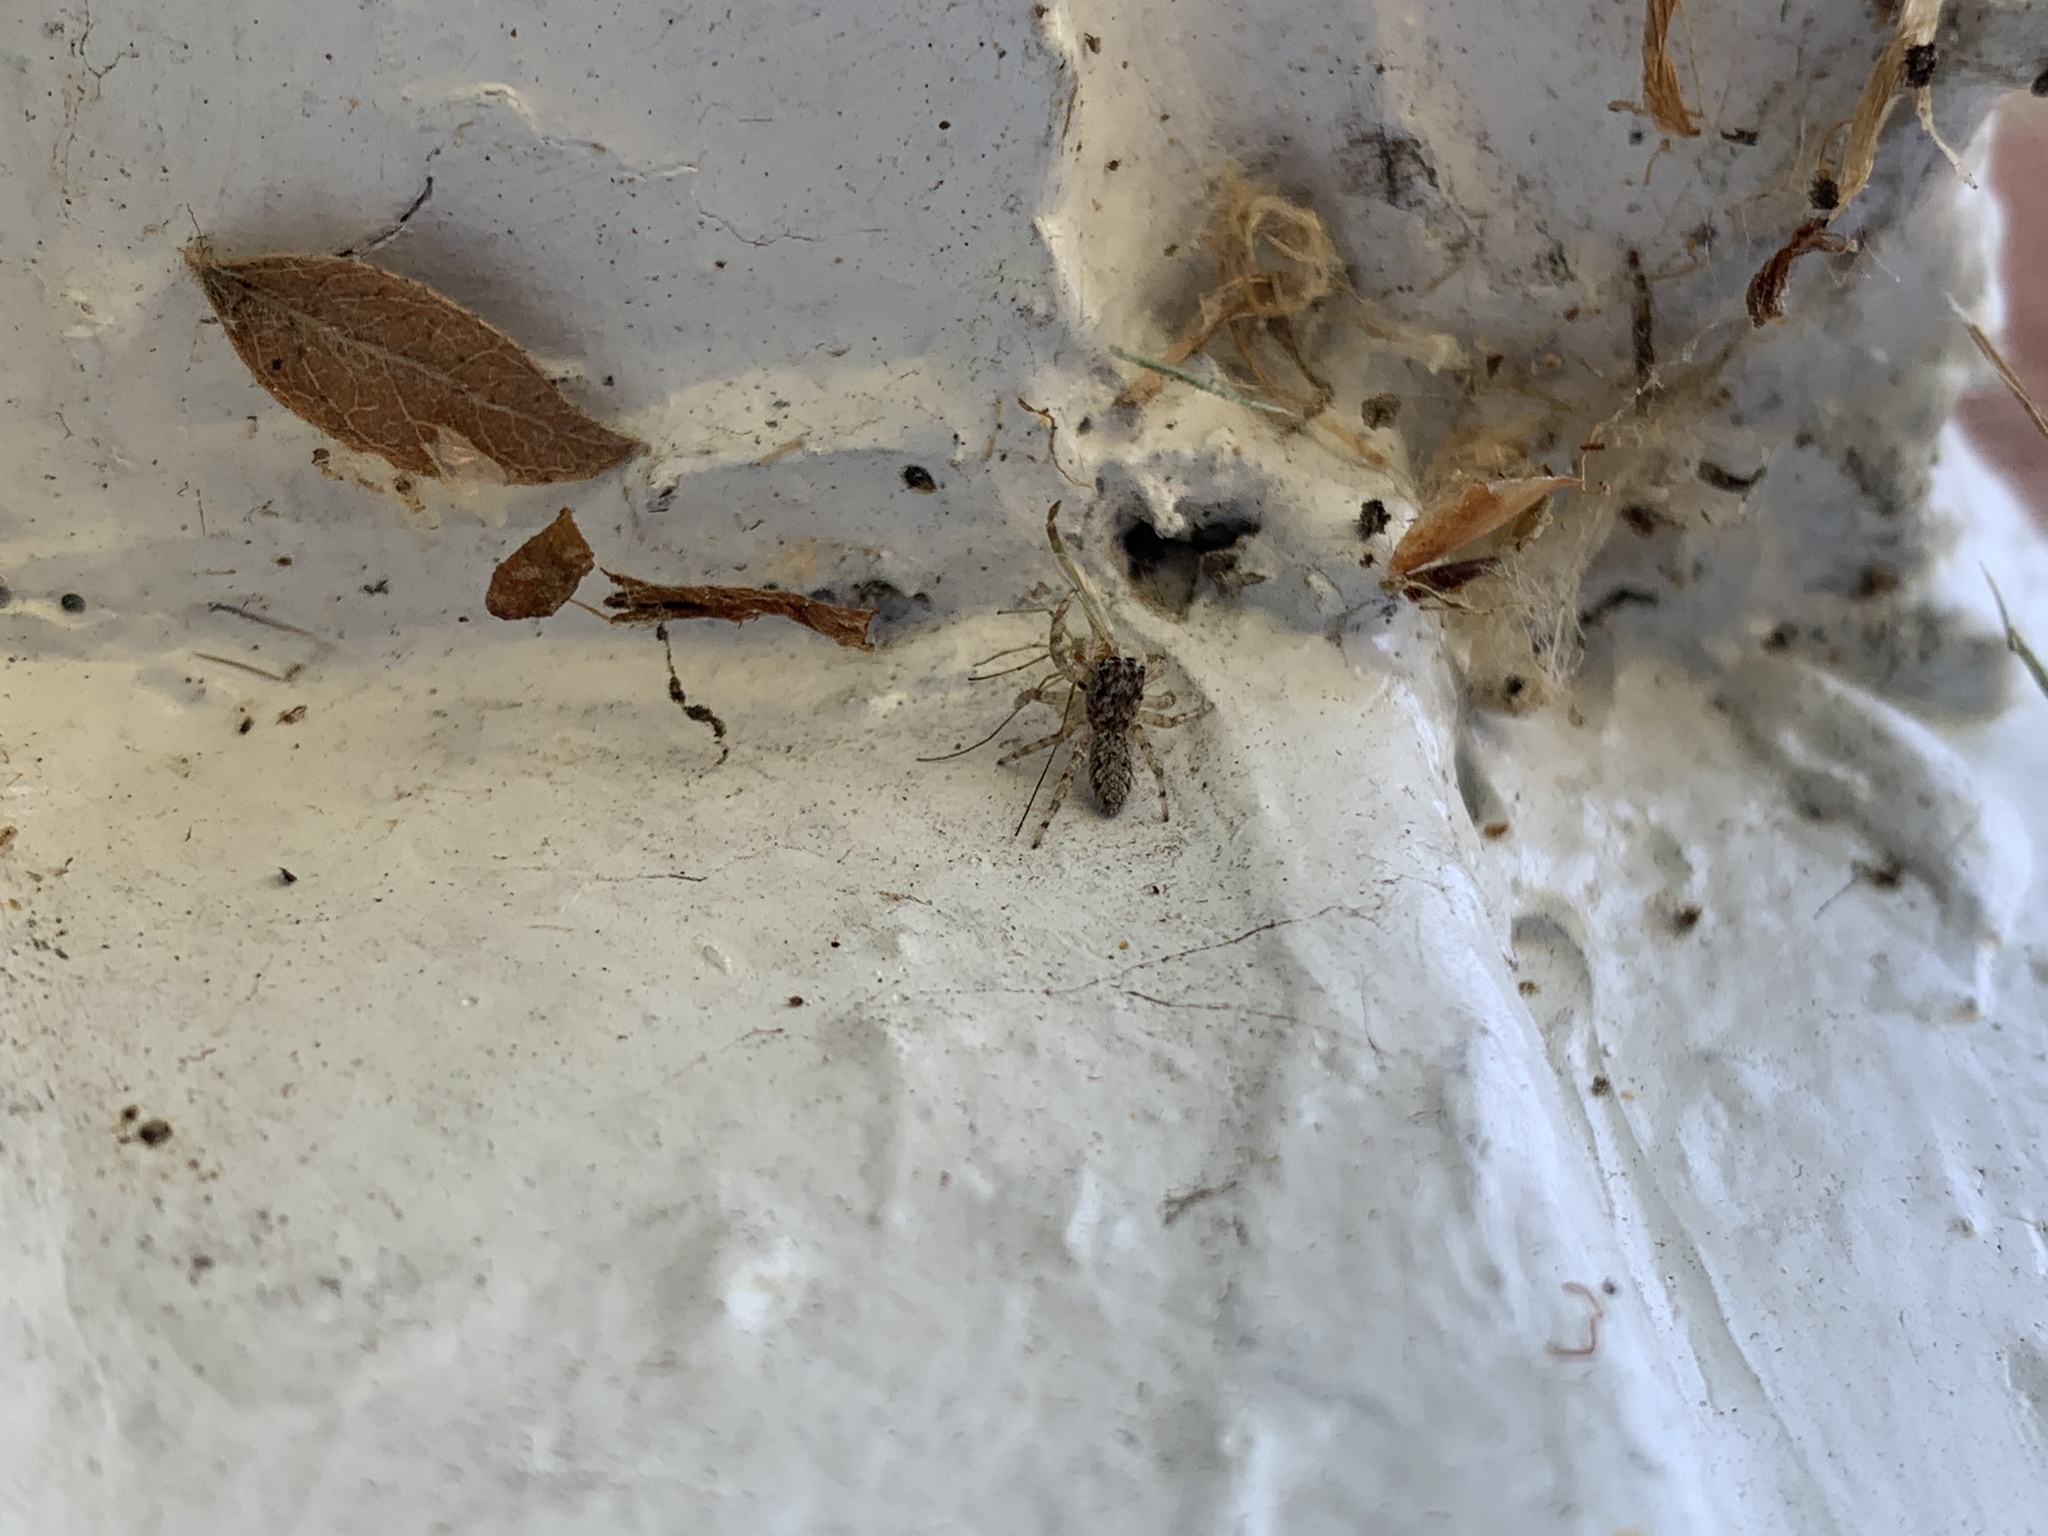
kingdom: Animalia
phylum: Arthropoda
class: Arachnida
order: Araneae
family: Salticidae
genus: Platycryptus
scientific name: Platycryptus undatus
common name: Tan jumping spider
